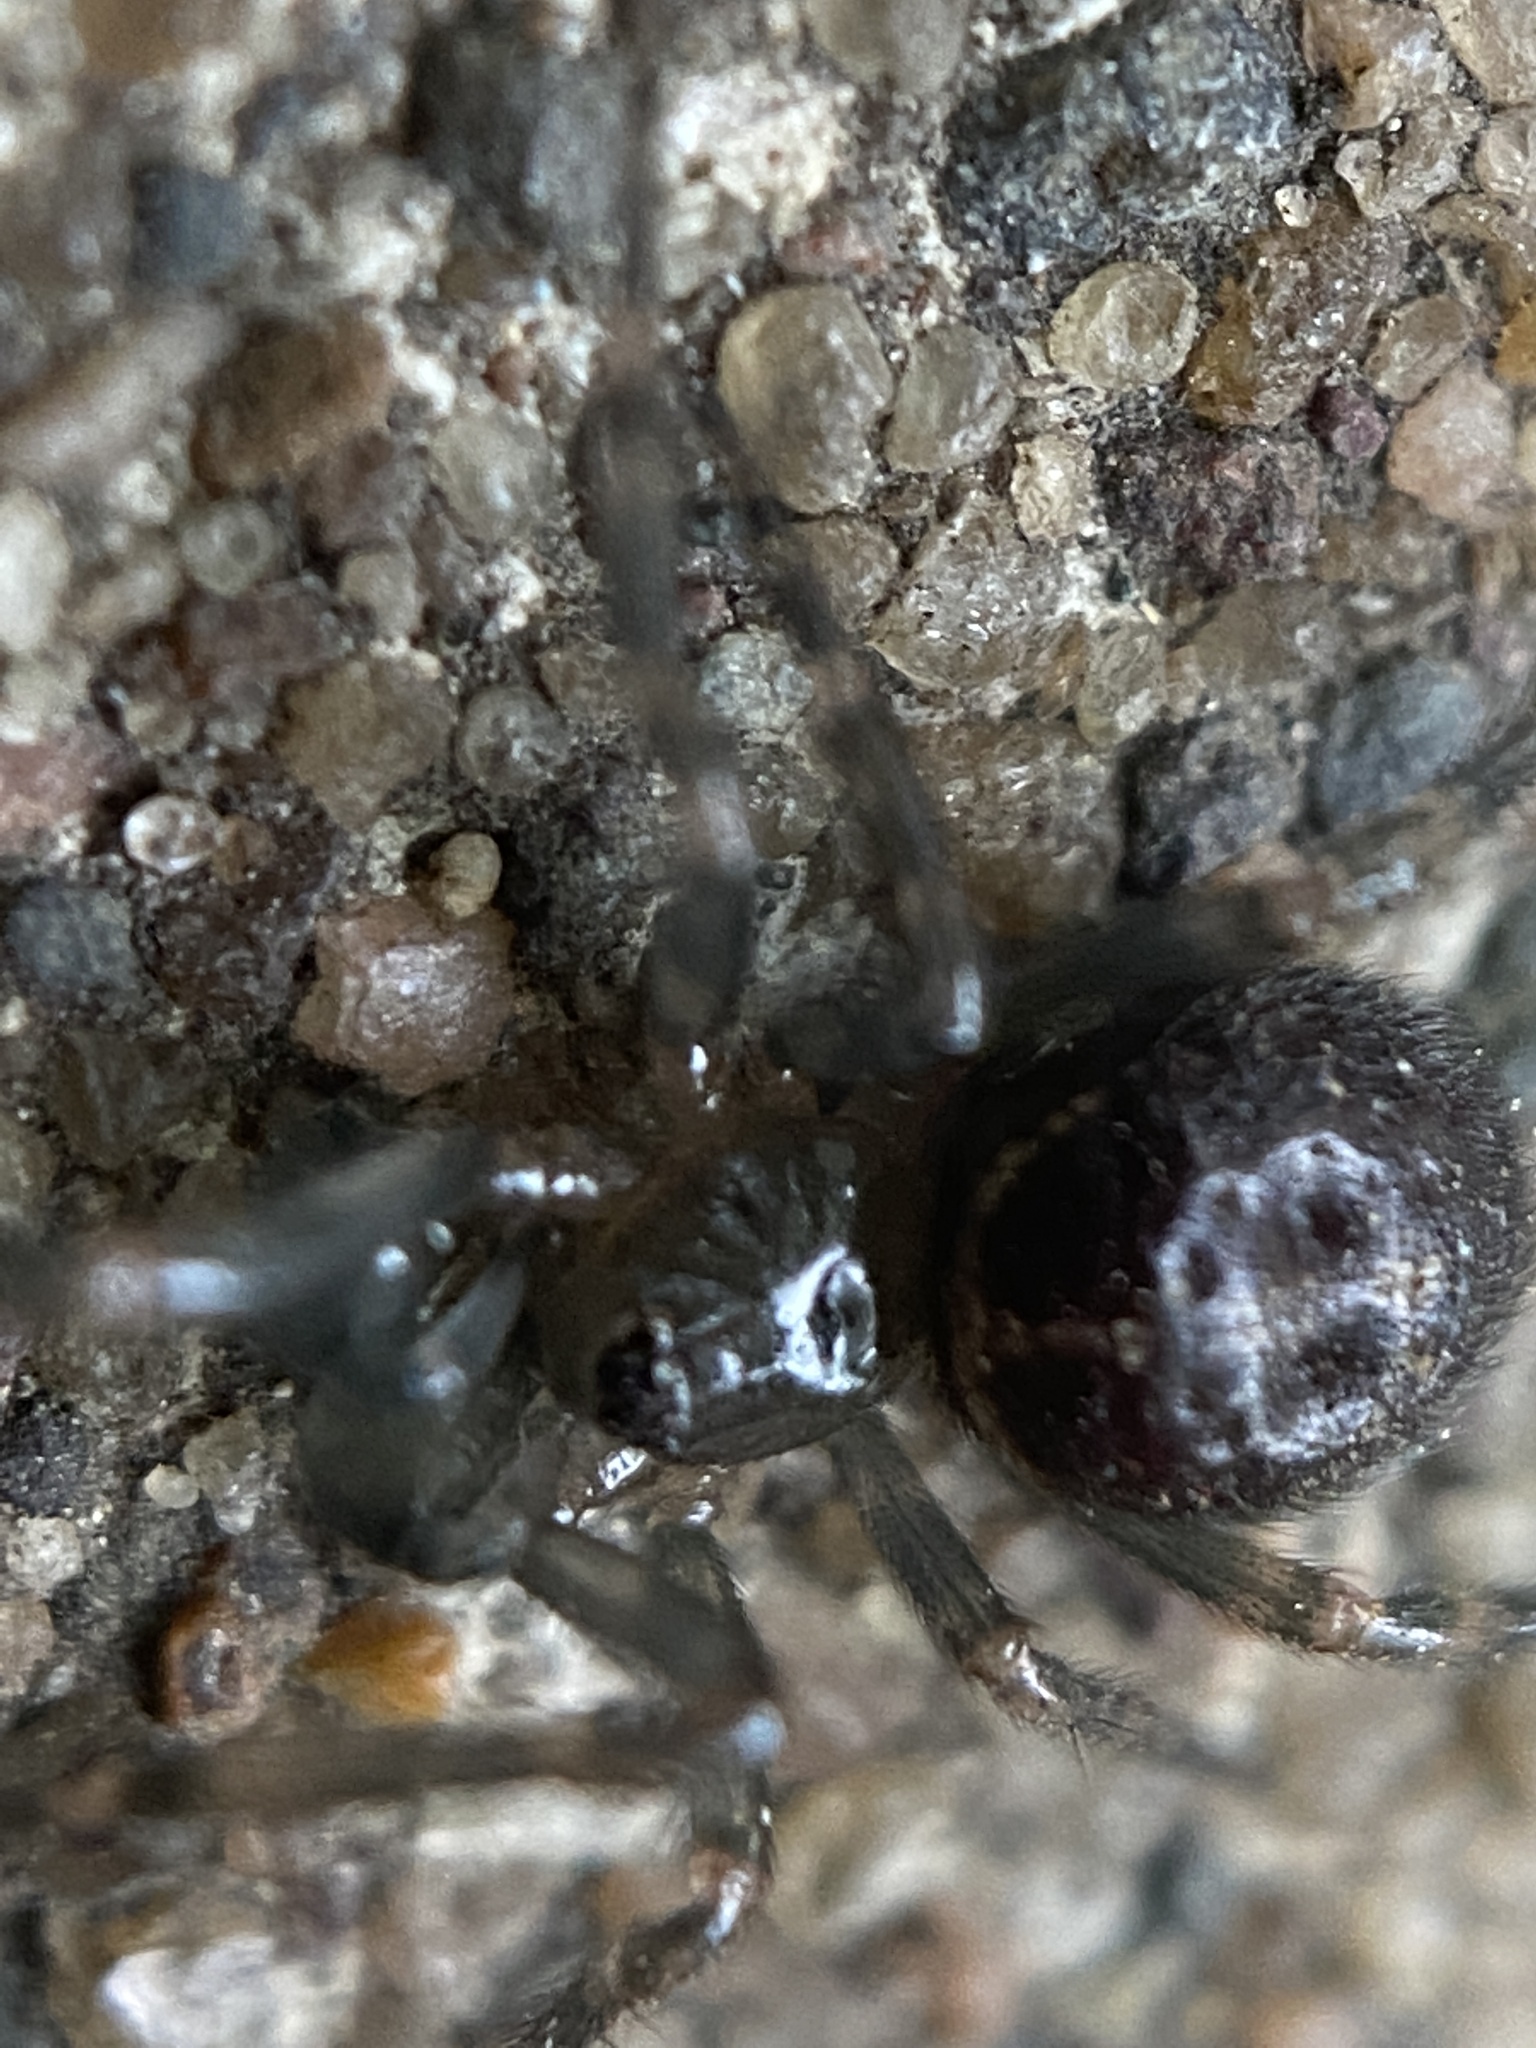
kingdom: Animalia
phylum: Arthropoda
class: Arachnida
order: Araneae
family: Theridiidae
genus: Steatoda
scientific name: Steatoda borealis
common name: Boreal combfoot
